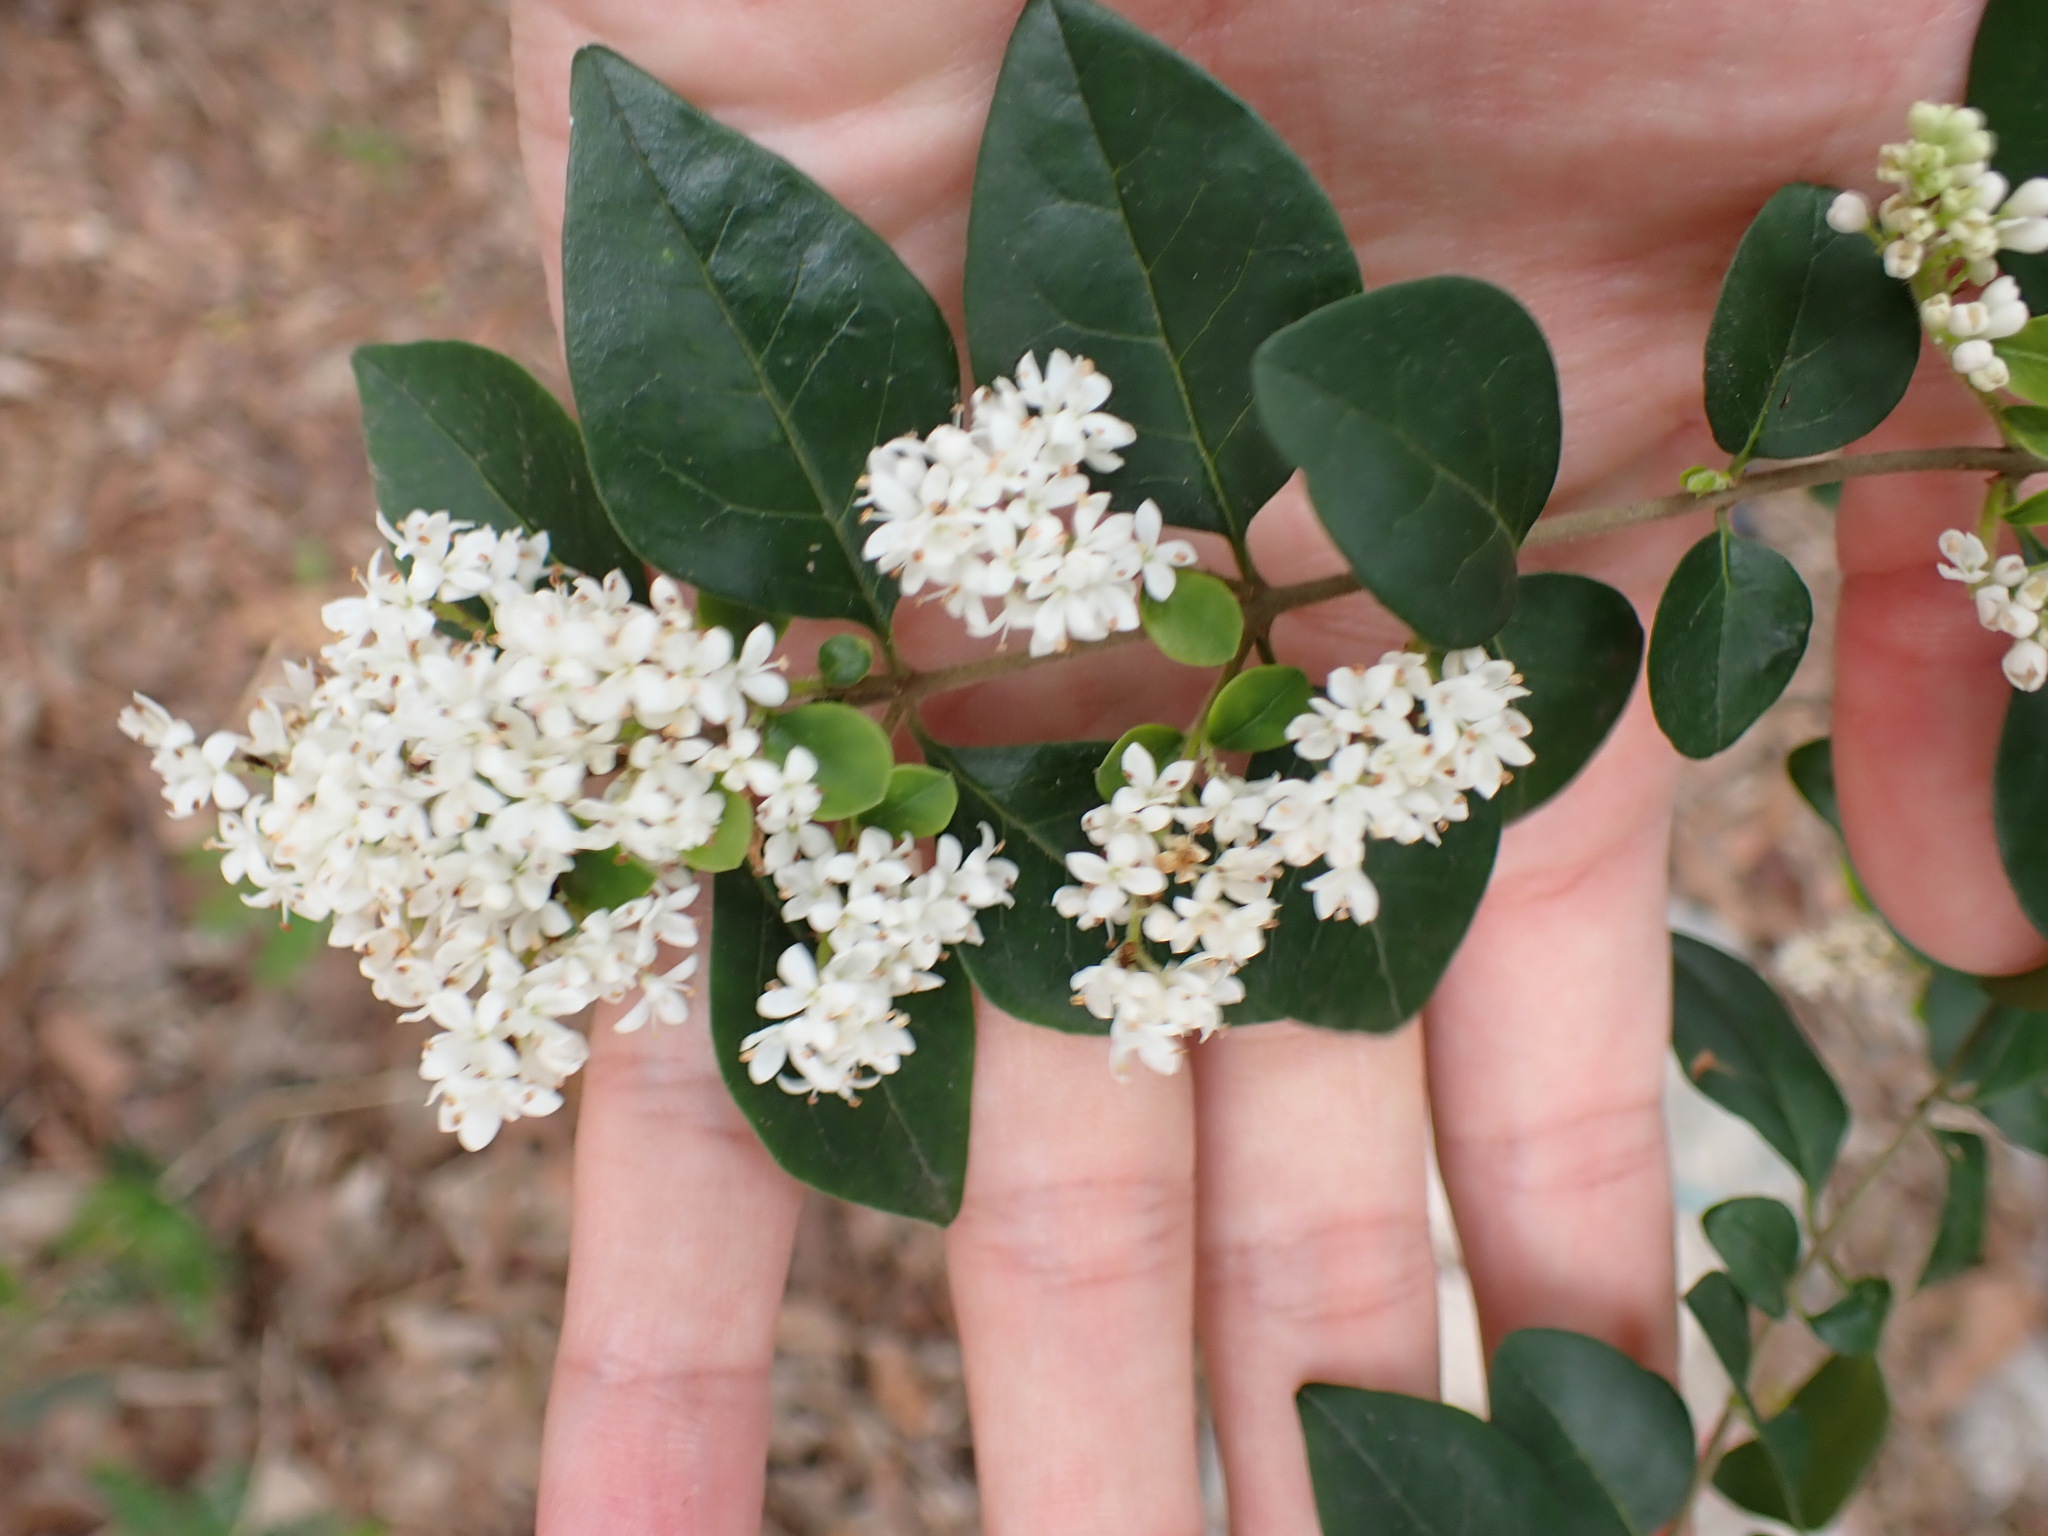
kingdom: Plantae
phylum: Tracheophyta
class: Magnoliopsida
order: Lamiales
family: Oleaceae
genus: Ligustrum
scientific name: Ligustrum sinense
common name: Chinese privet
